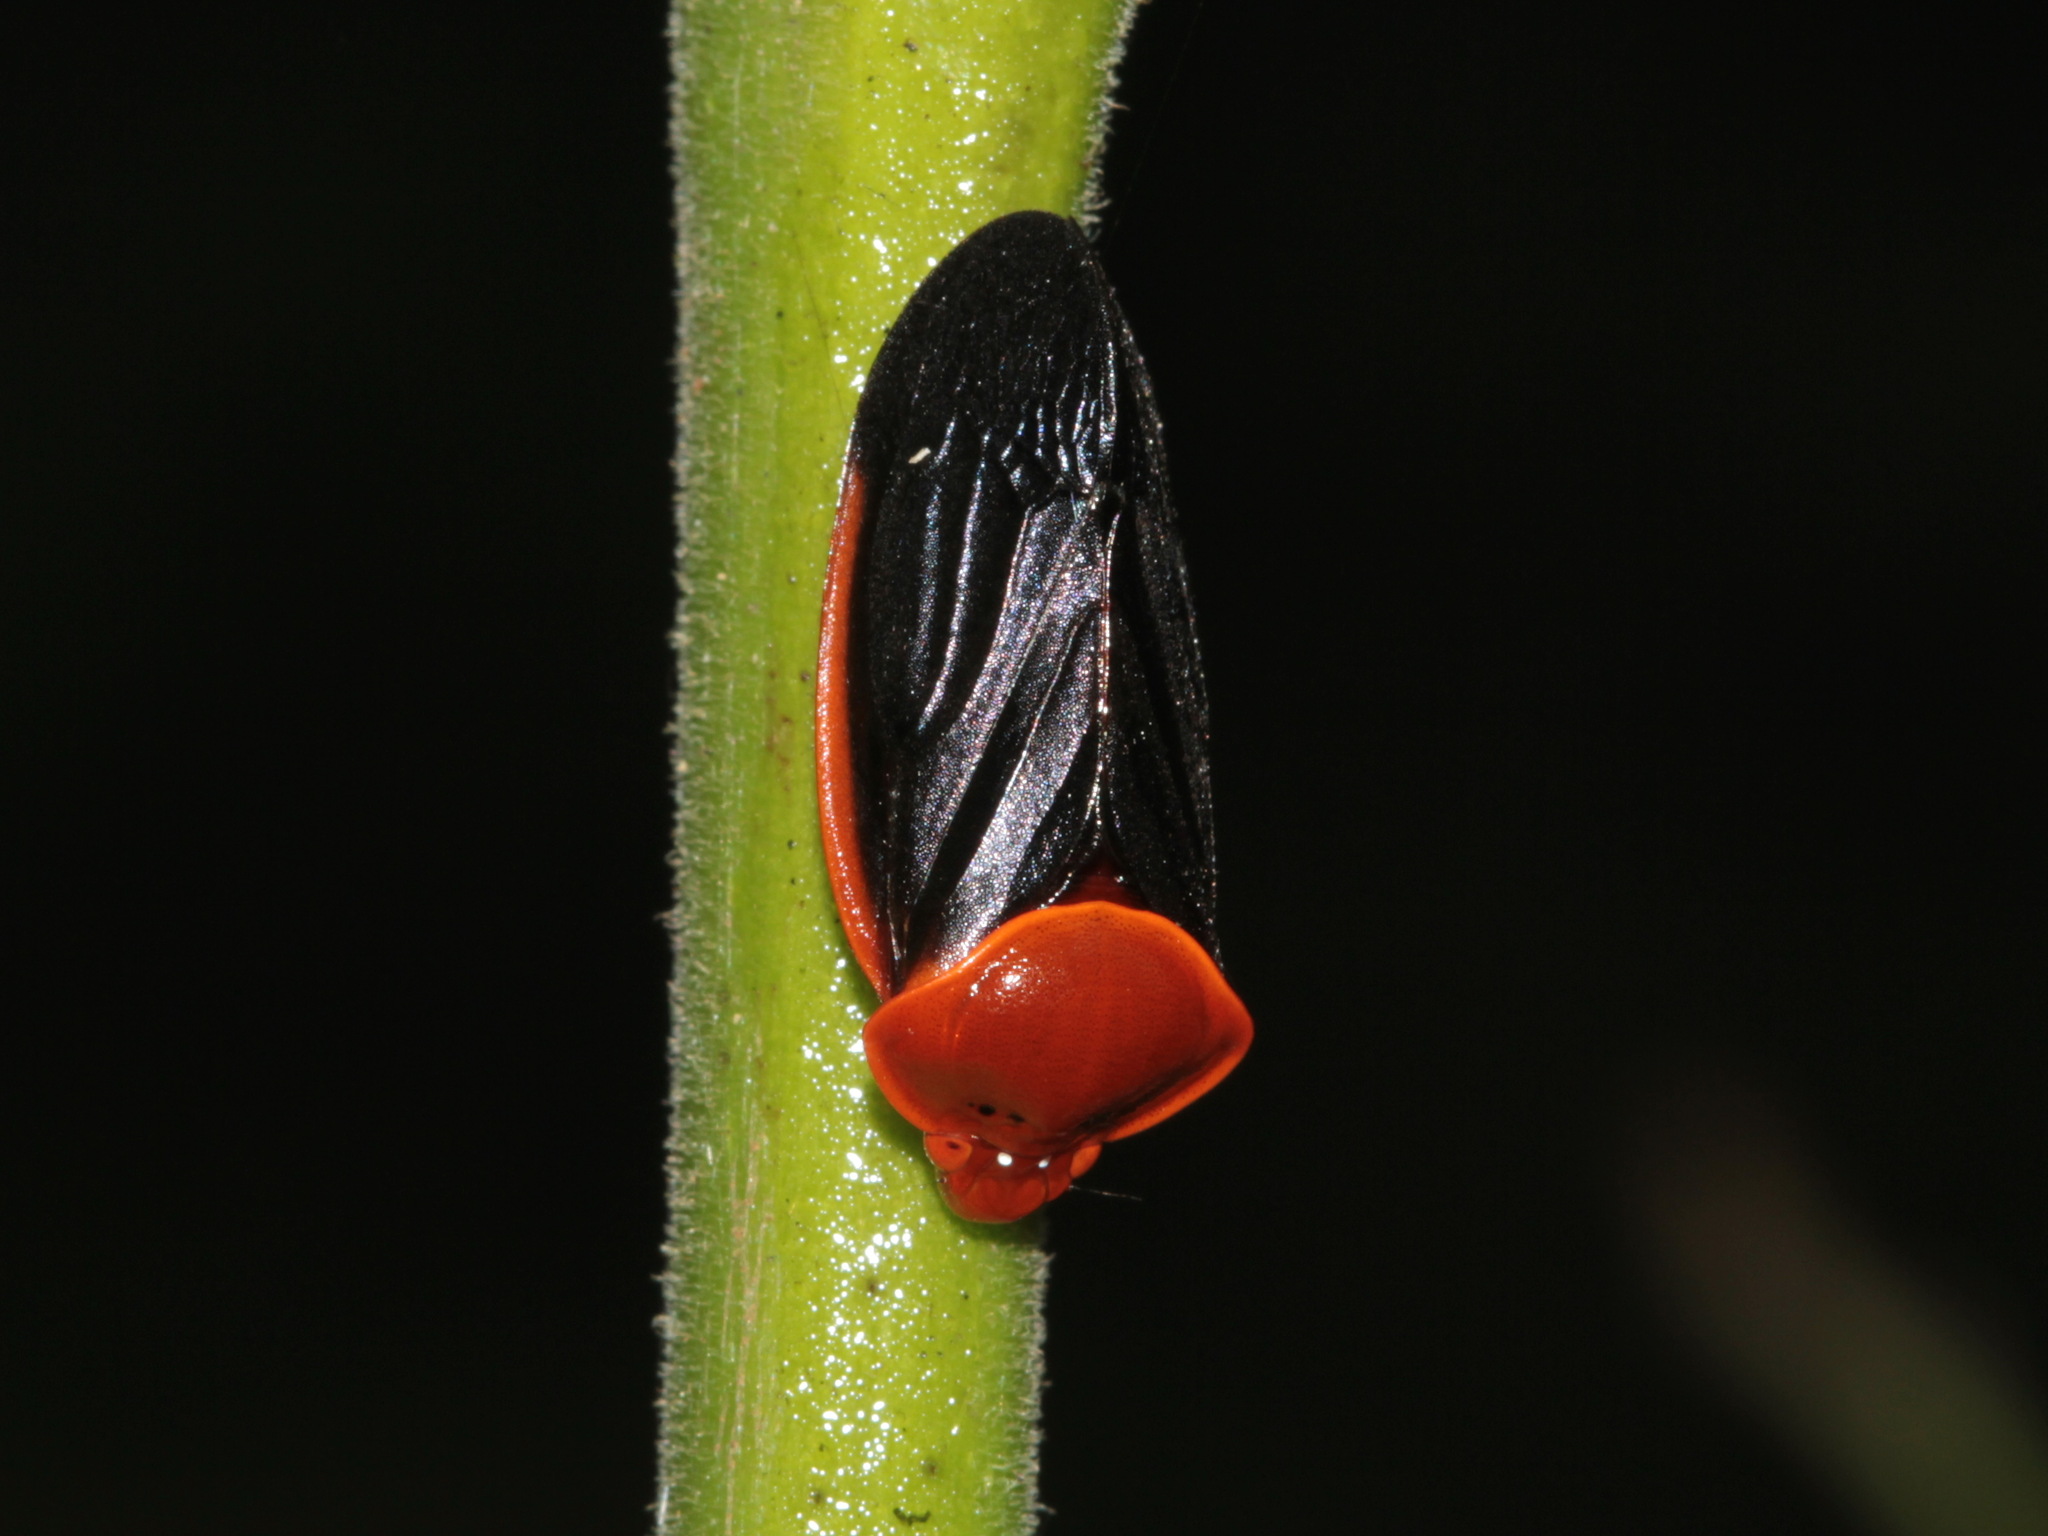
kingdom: Animalia
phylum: Arthropoda
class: Insecta
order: Hemiptera
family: Cercopidae
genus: Leptataspis
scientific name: Leptataspis fuscipennis
